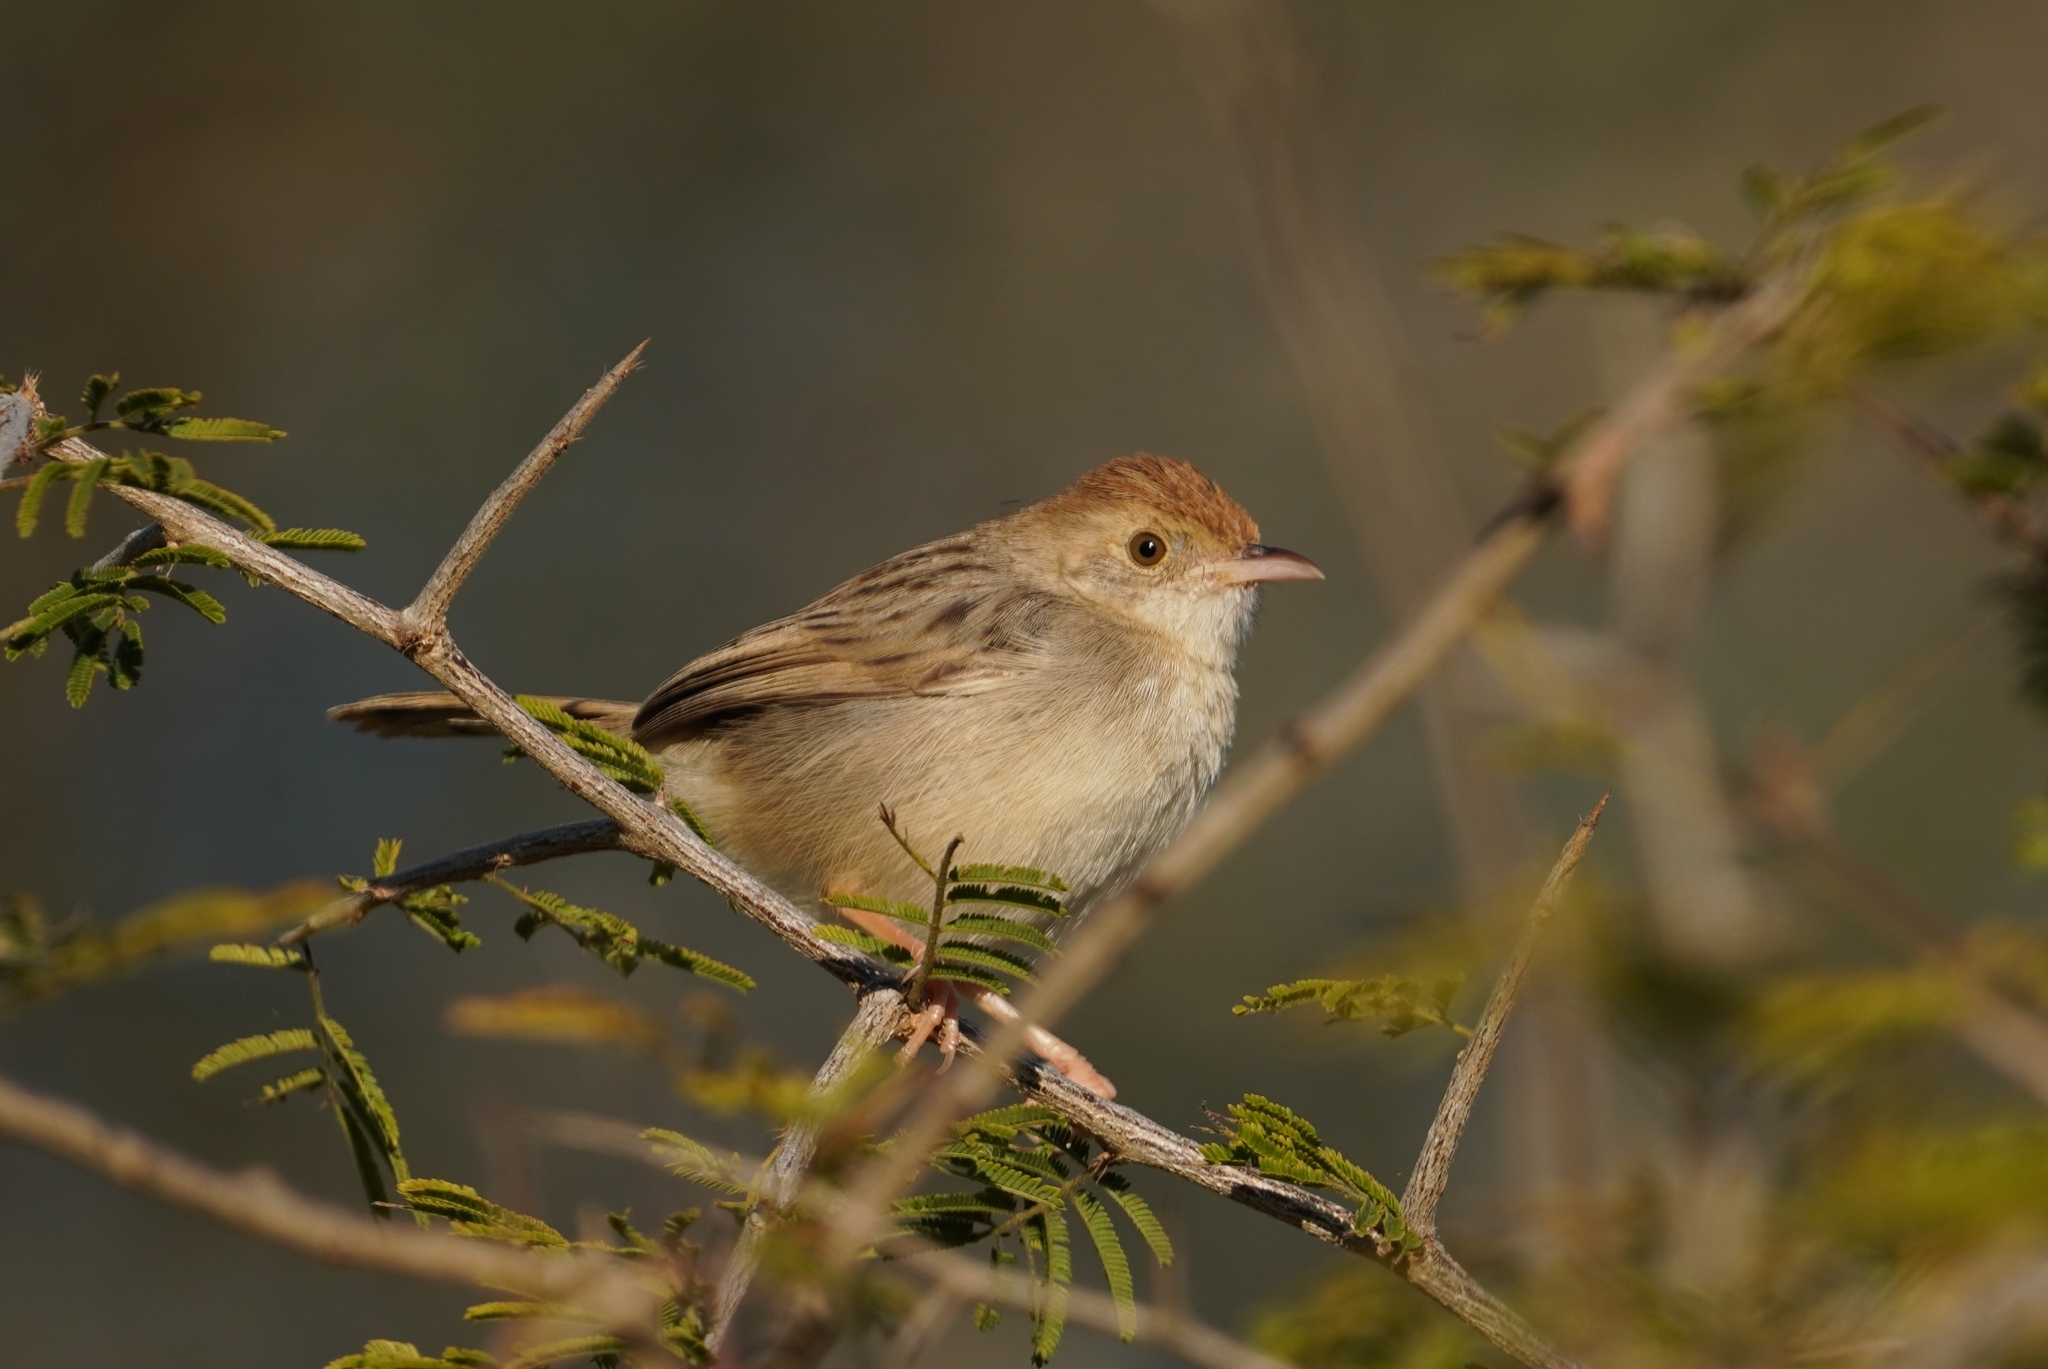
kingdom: Animalia
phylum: Chordata
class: Aves
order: Passeriformes
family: Cisticolidae
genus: Cisticola
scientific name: Cisticola chiniana
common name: Rattling cisticola
